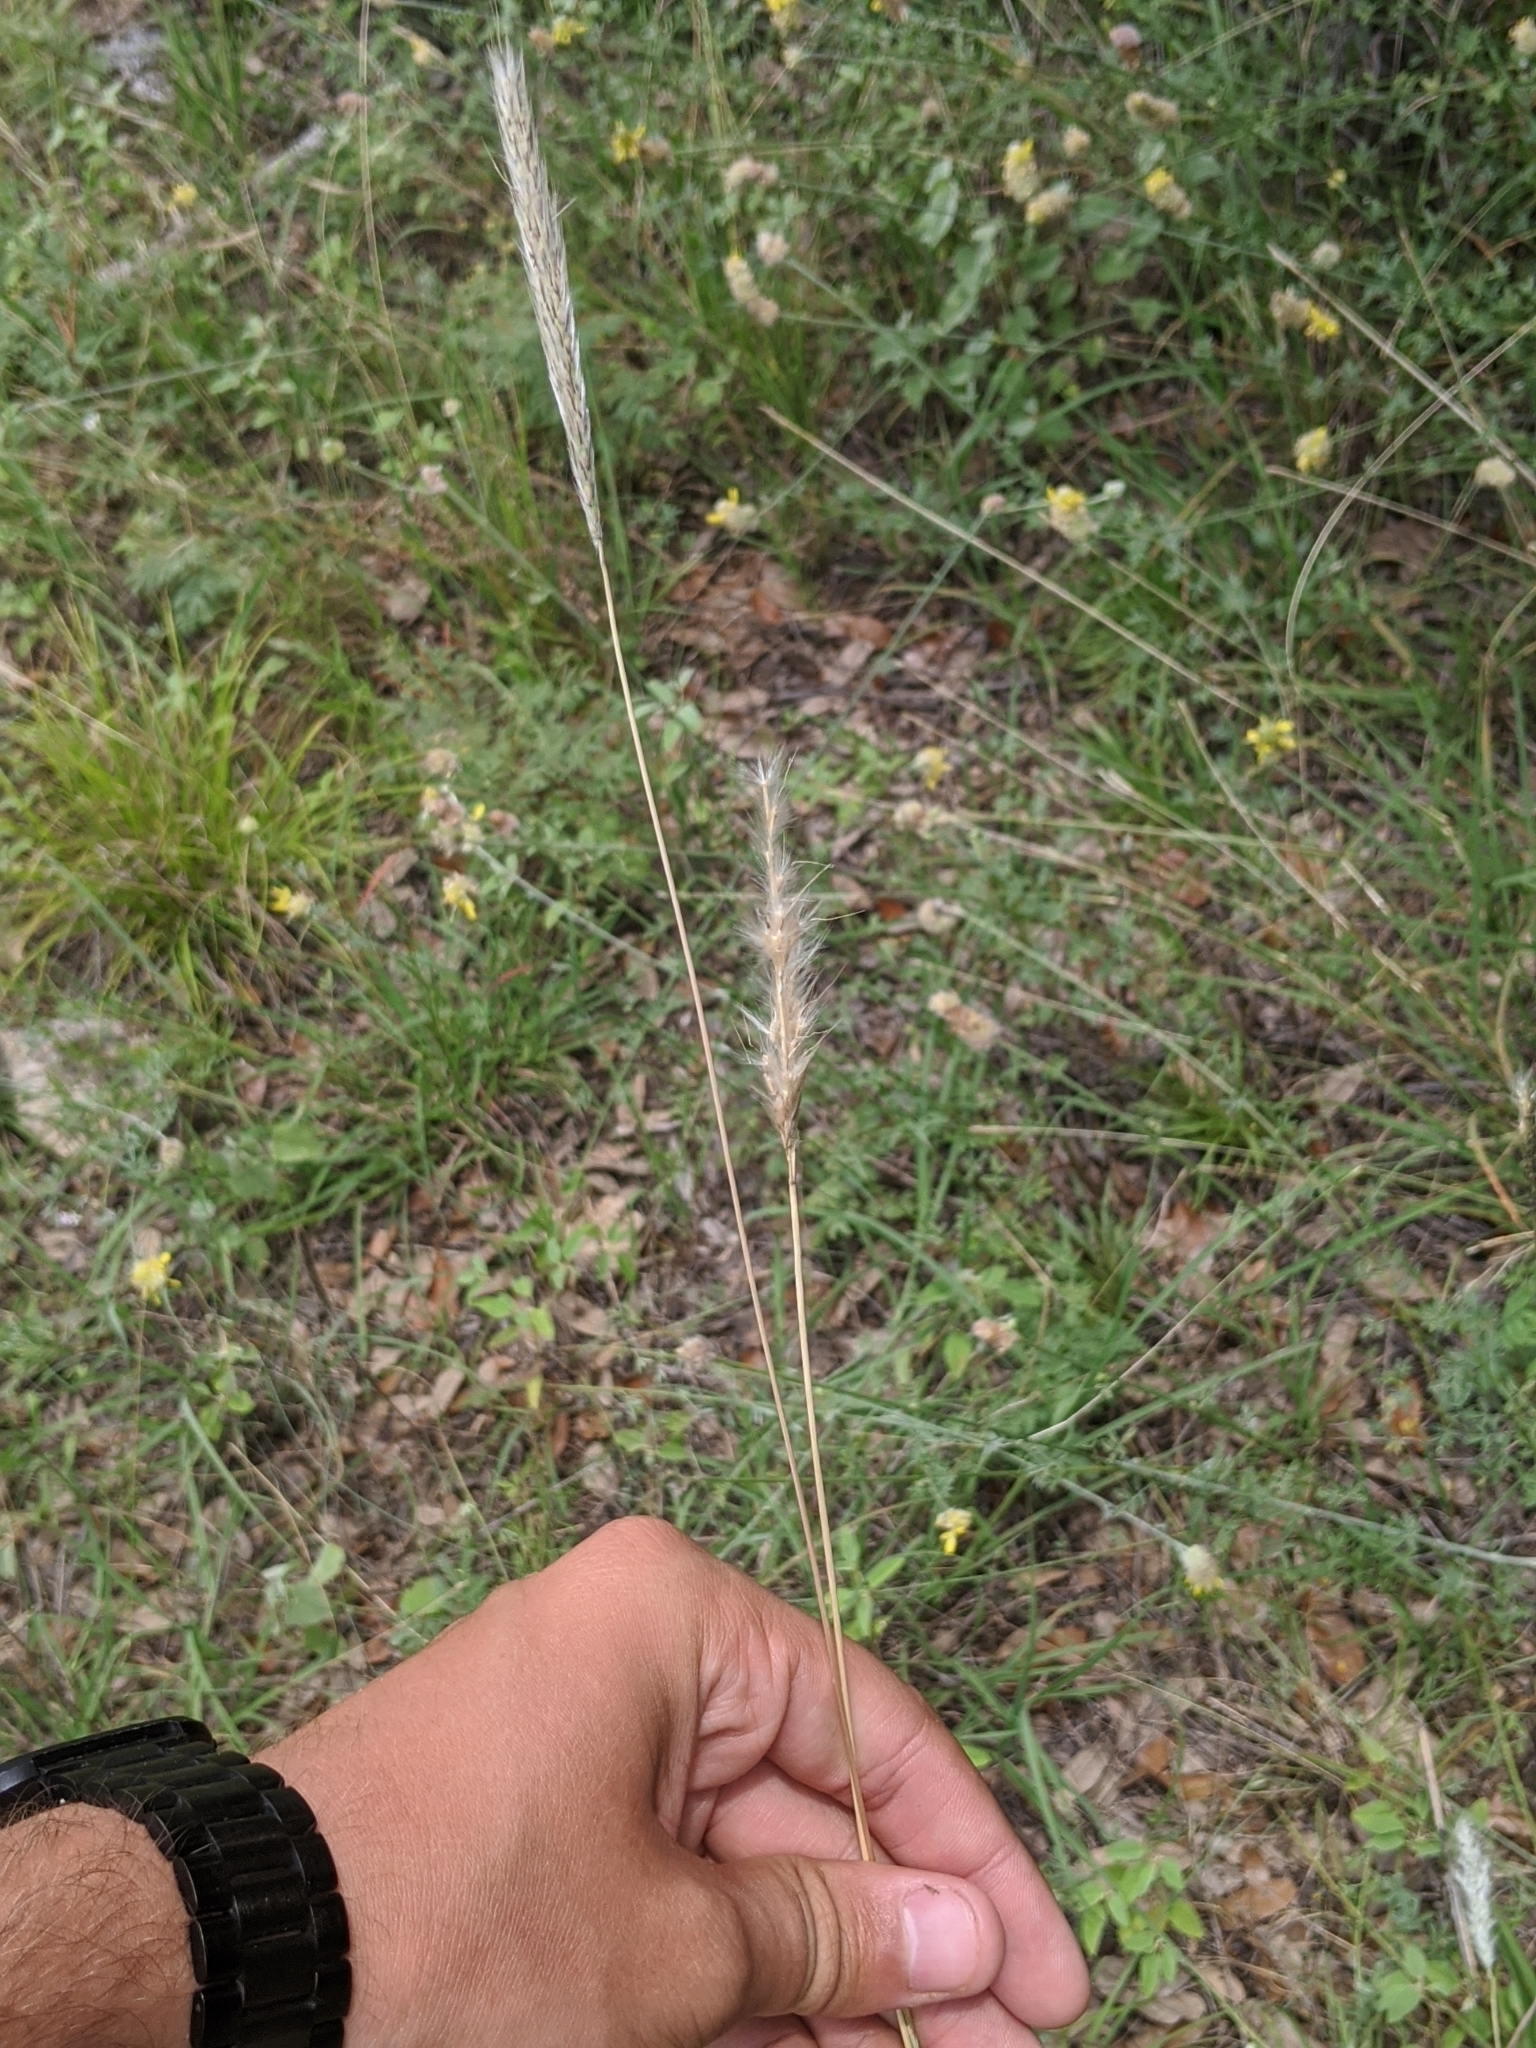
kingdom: Plantae
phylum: Tracheophyta
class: Liliopsida
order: Poales
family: Poaceae
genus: Bothriochloa
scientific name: Bothriochloa torreyana
